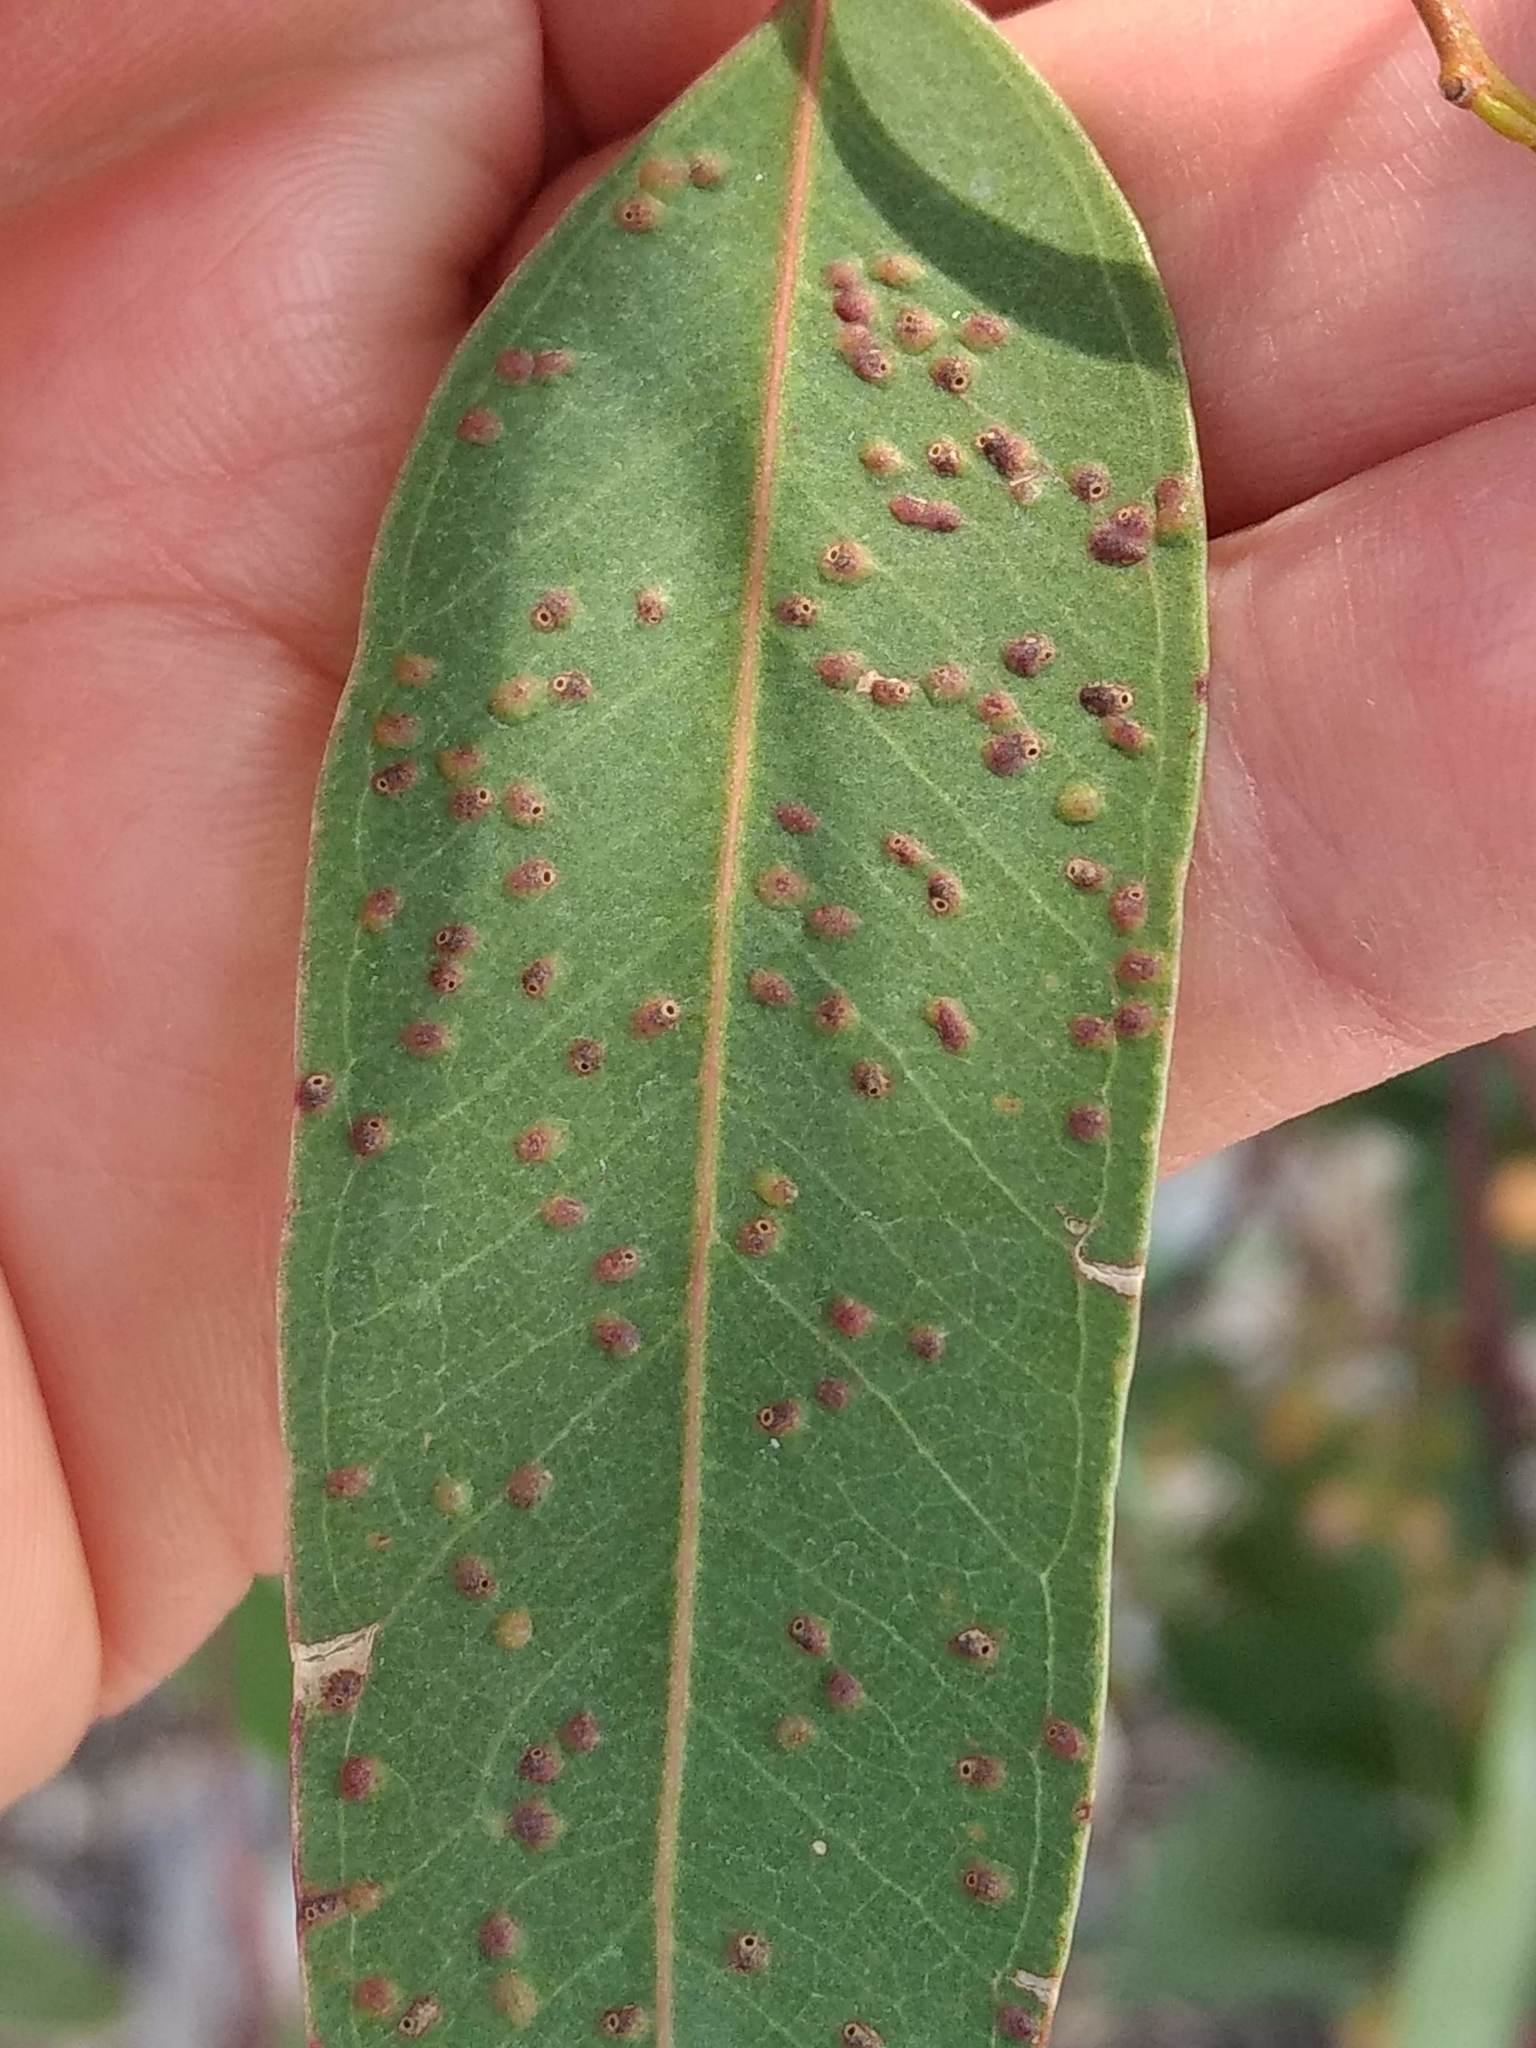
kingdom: Animalia
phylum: Arthropoda
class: Insecta
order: Hymenoptera
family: Eulophidae
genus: Ophelimus
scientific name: Ophelimus maskelli
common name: Gall wasp
